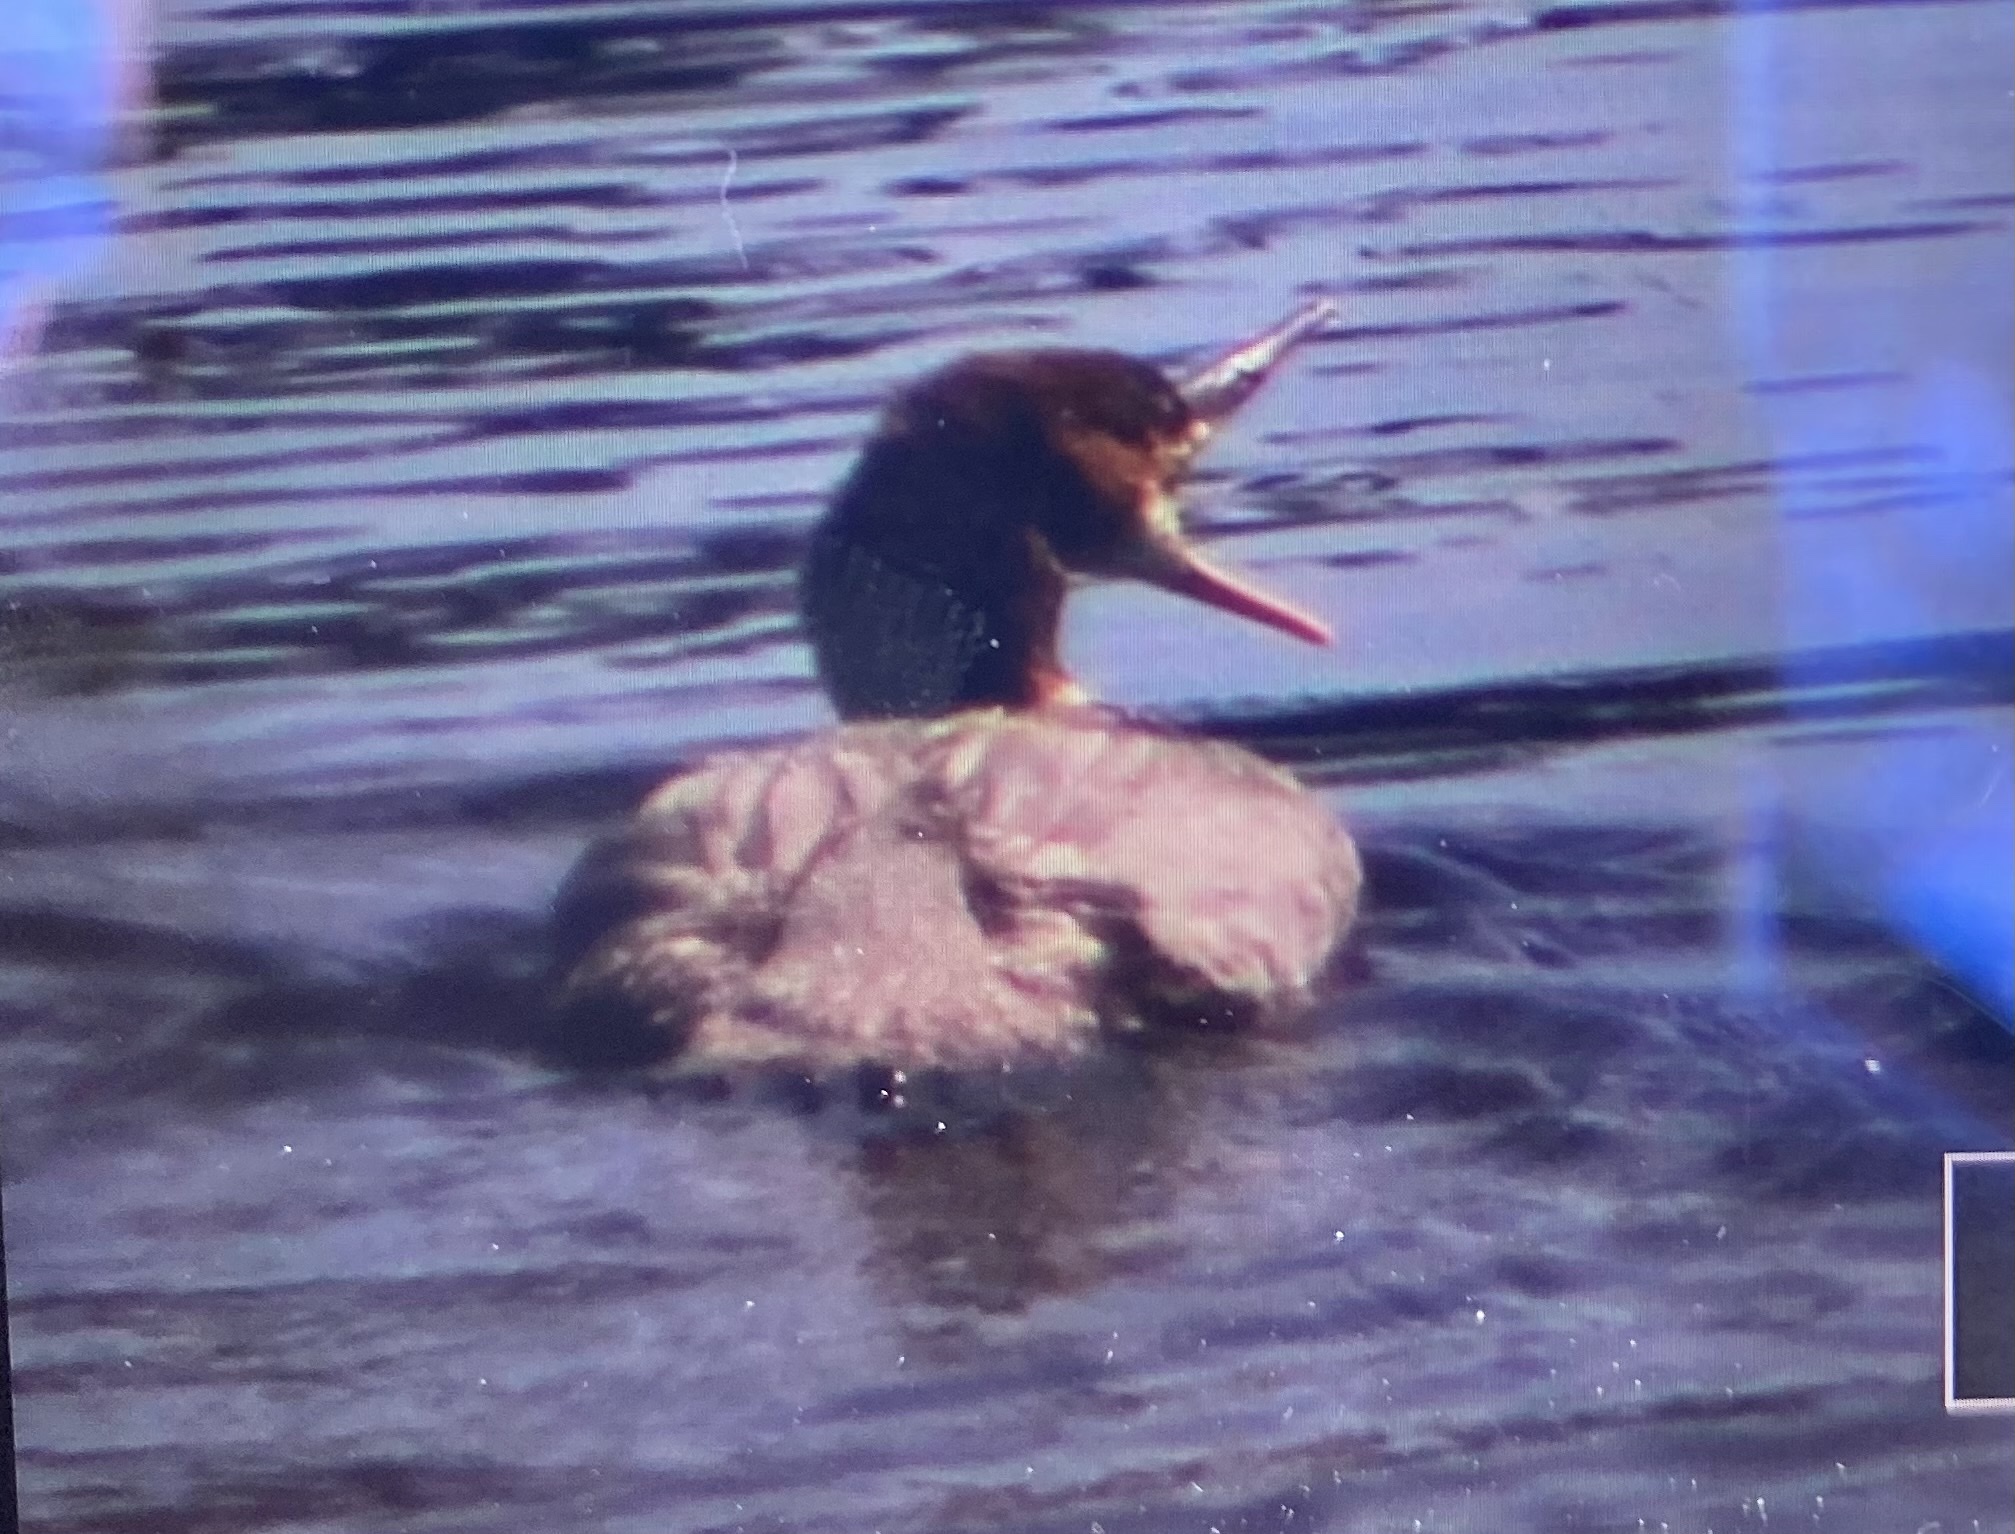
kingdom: Animalia
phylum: Chordata
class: Aves
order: Anseriformes
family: Anatidae
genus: Mergus
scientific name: Mergus merganser
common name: Common merganser
